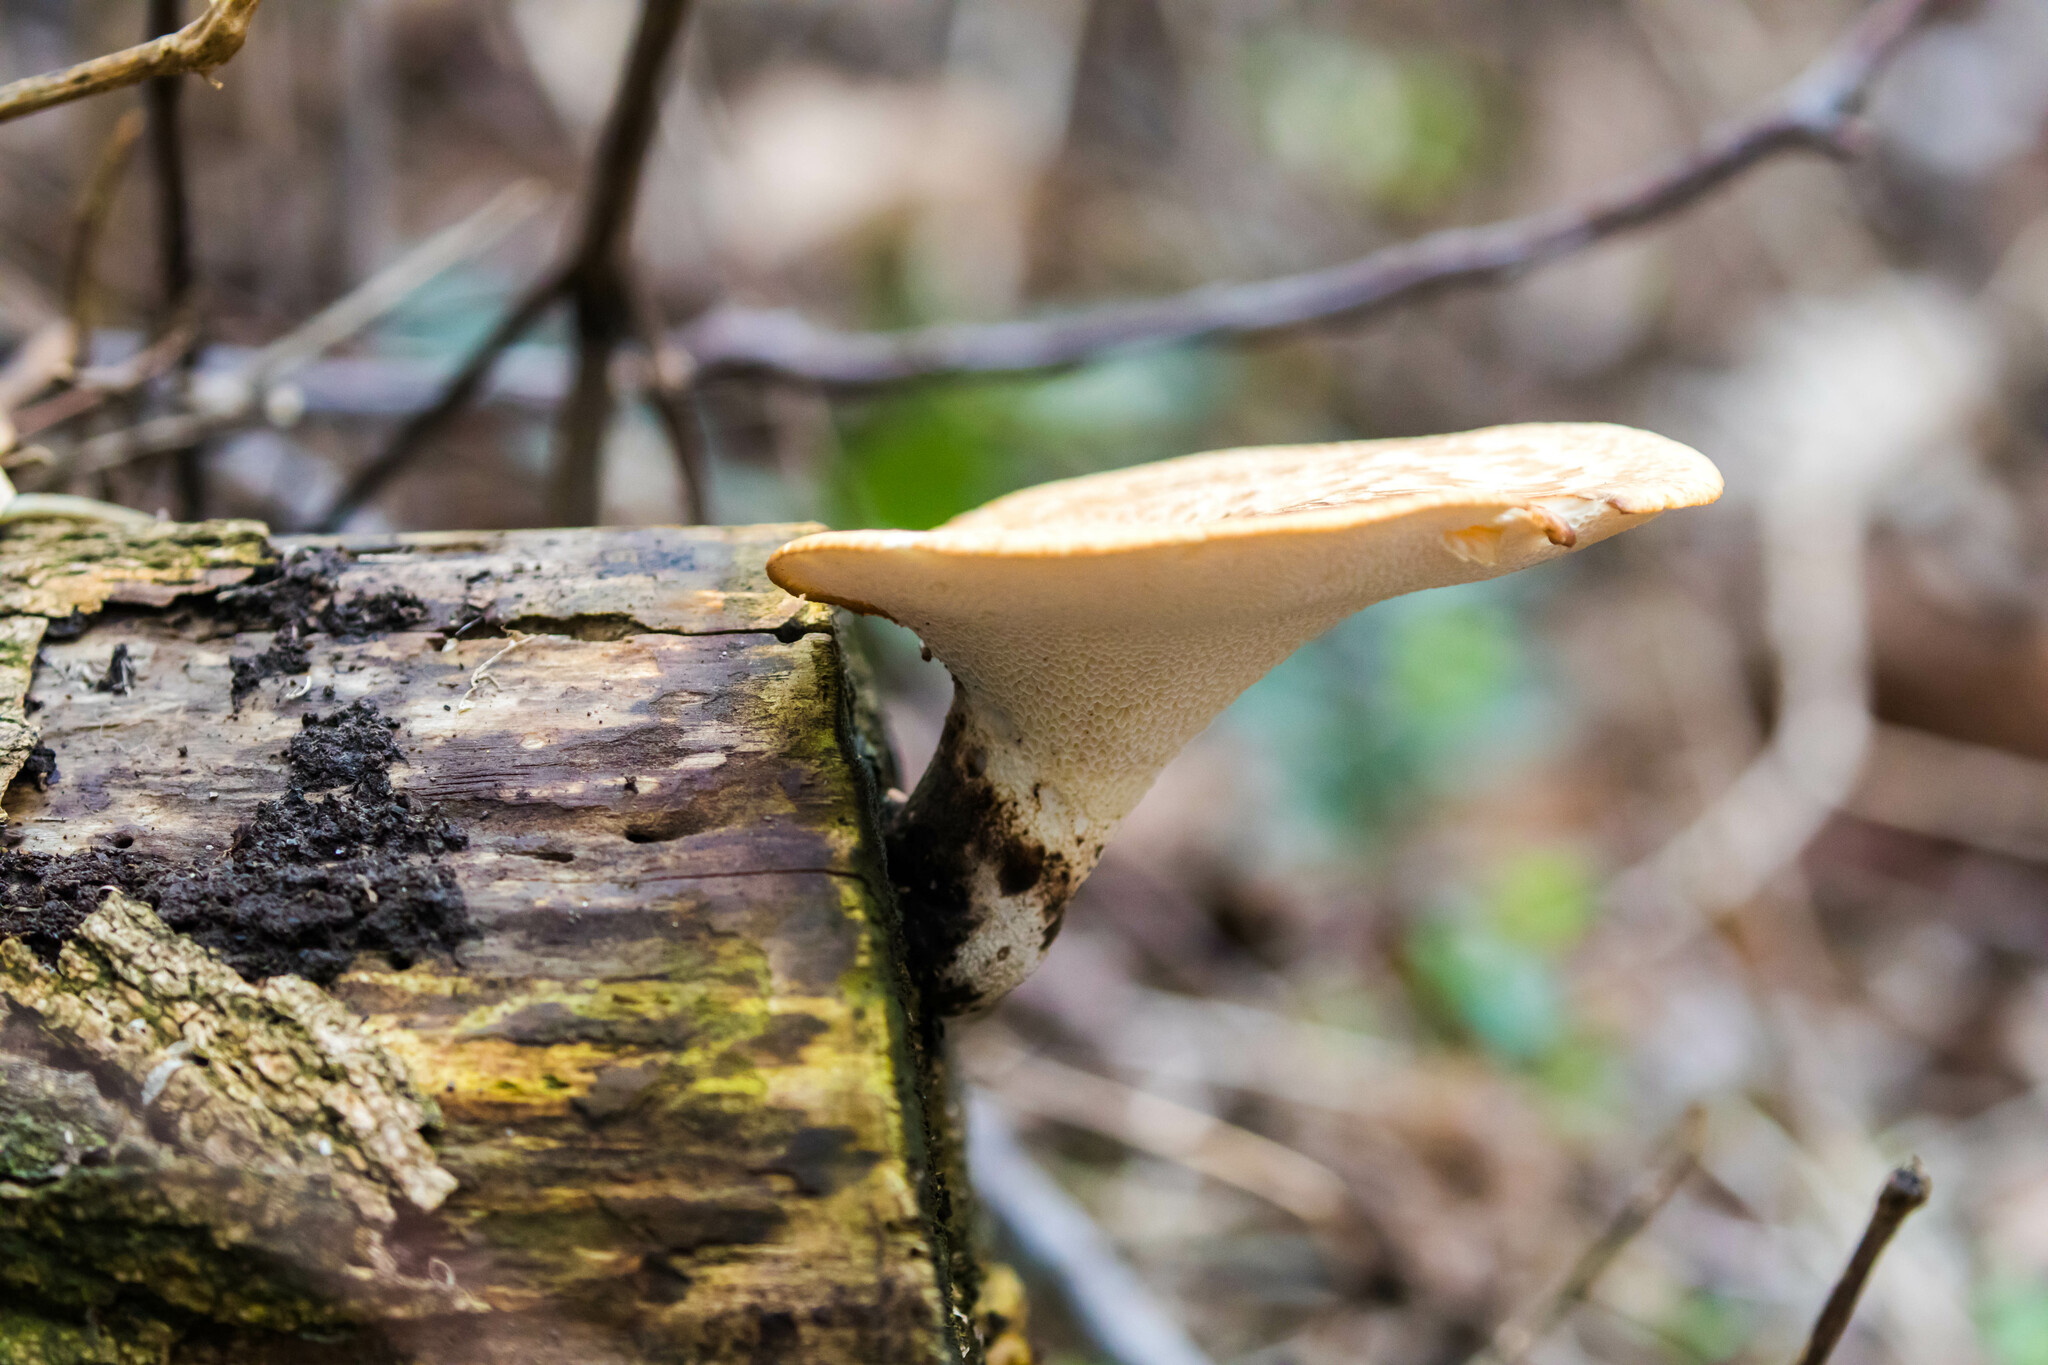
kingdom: Fungi
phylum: Basidiomycota
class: Agaricomycetes
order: Polyporales
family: Polyporaceae
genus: Cerioporus
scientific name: Cerioporus squamosus
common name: Dryad's saddle
